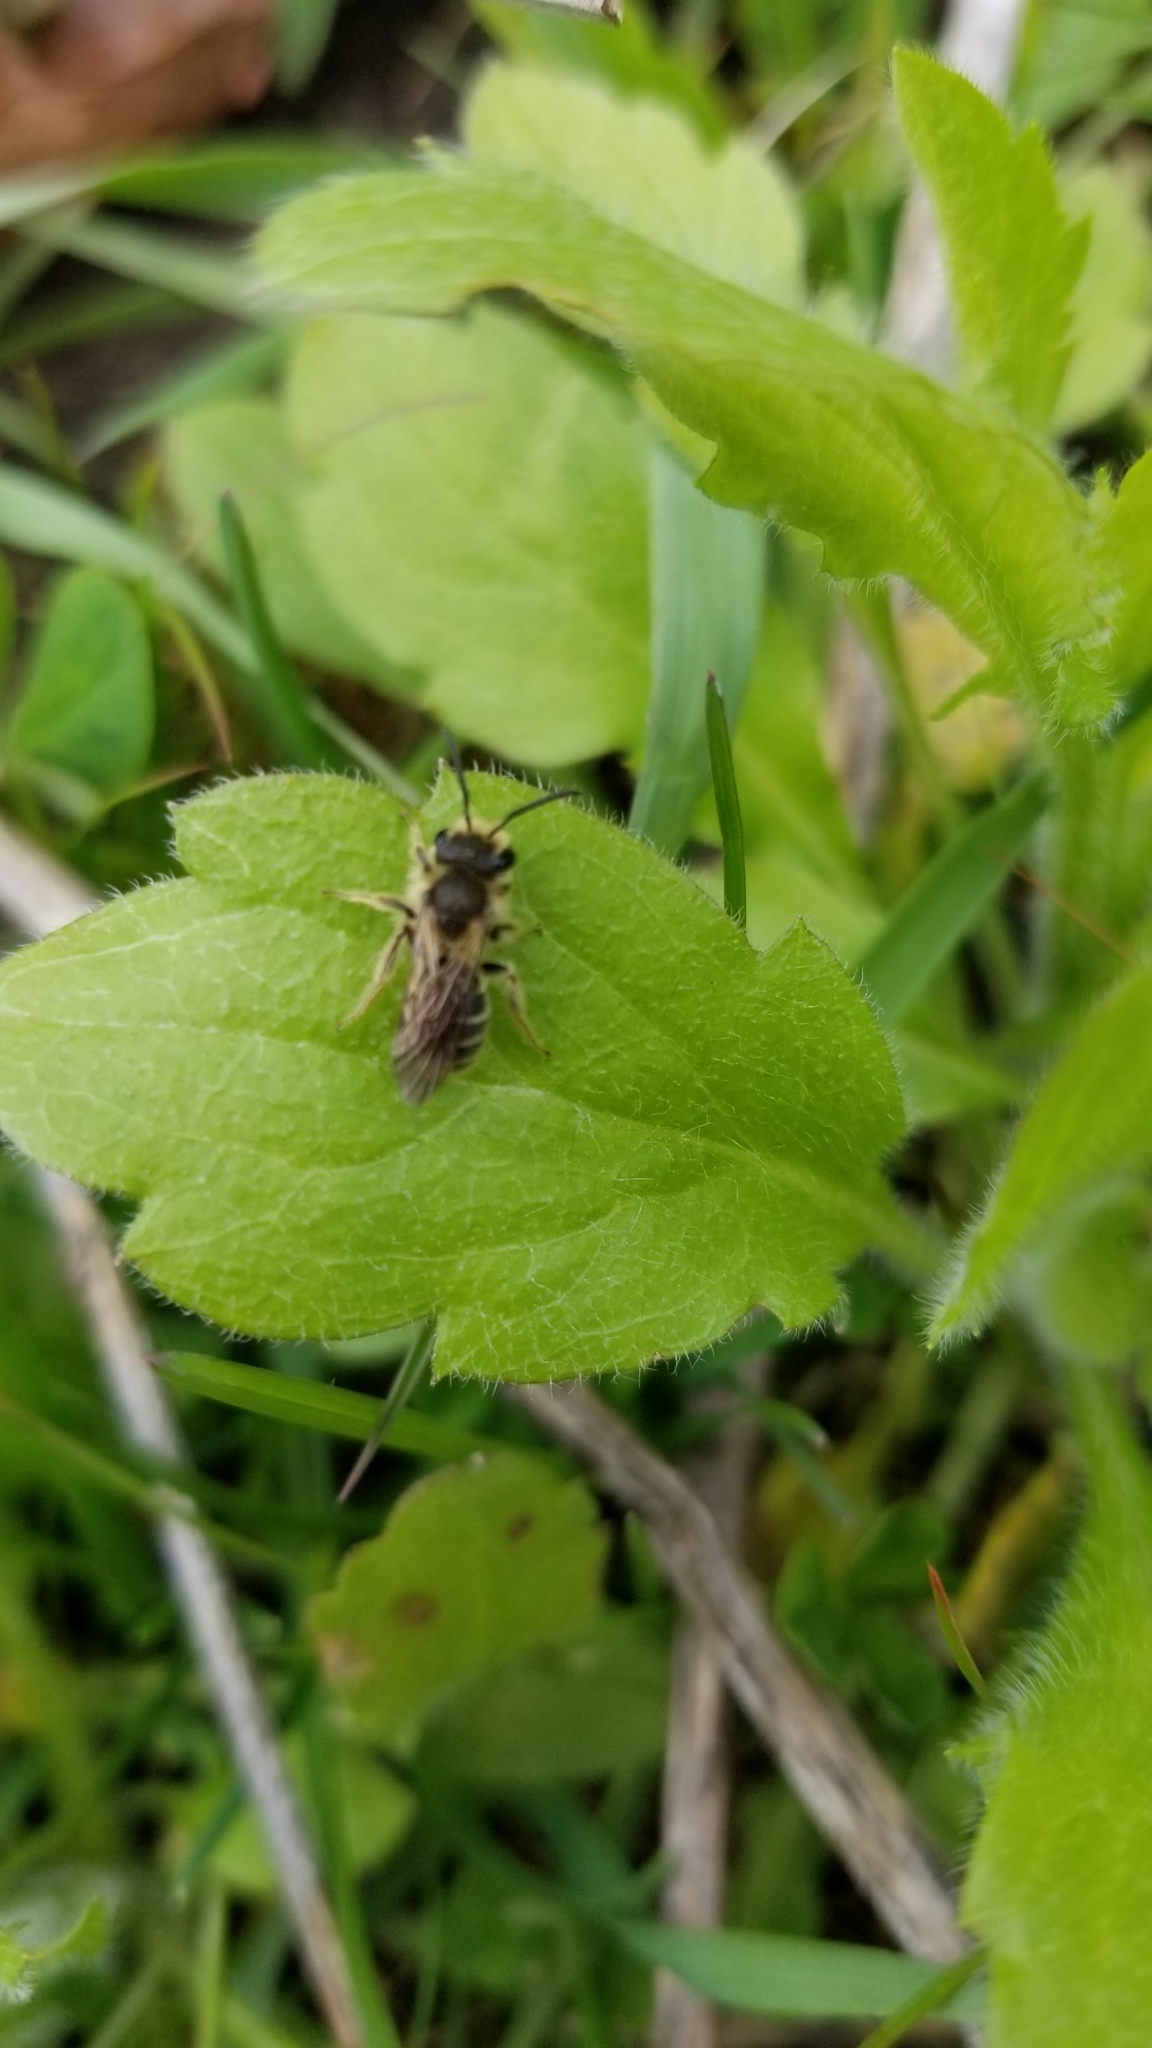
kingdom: Animalia
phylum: Arthropoda
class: Insecta
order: Hymenoptera
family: Andrenidae
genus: Andrena
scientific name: Andrena
